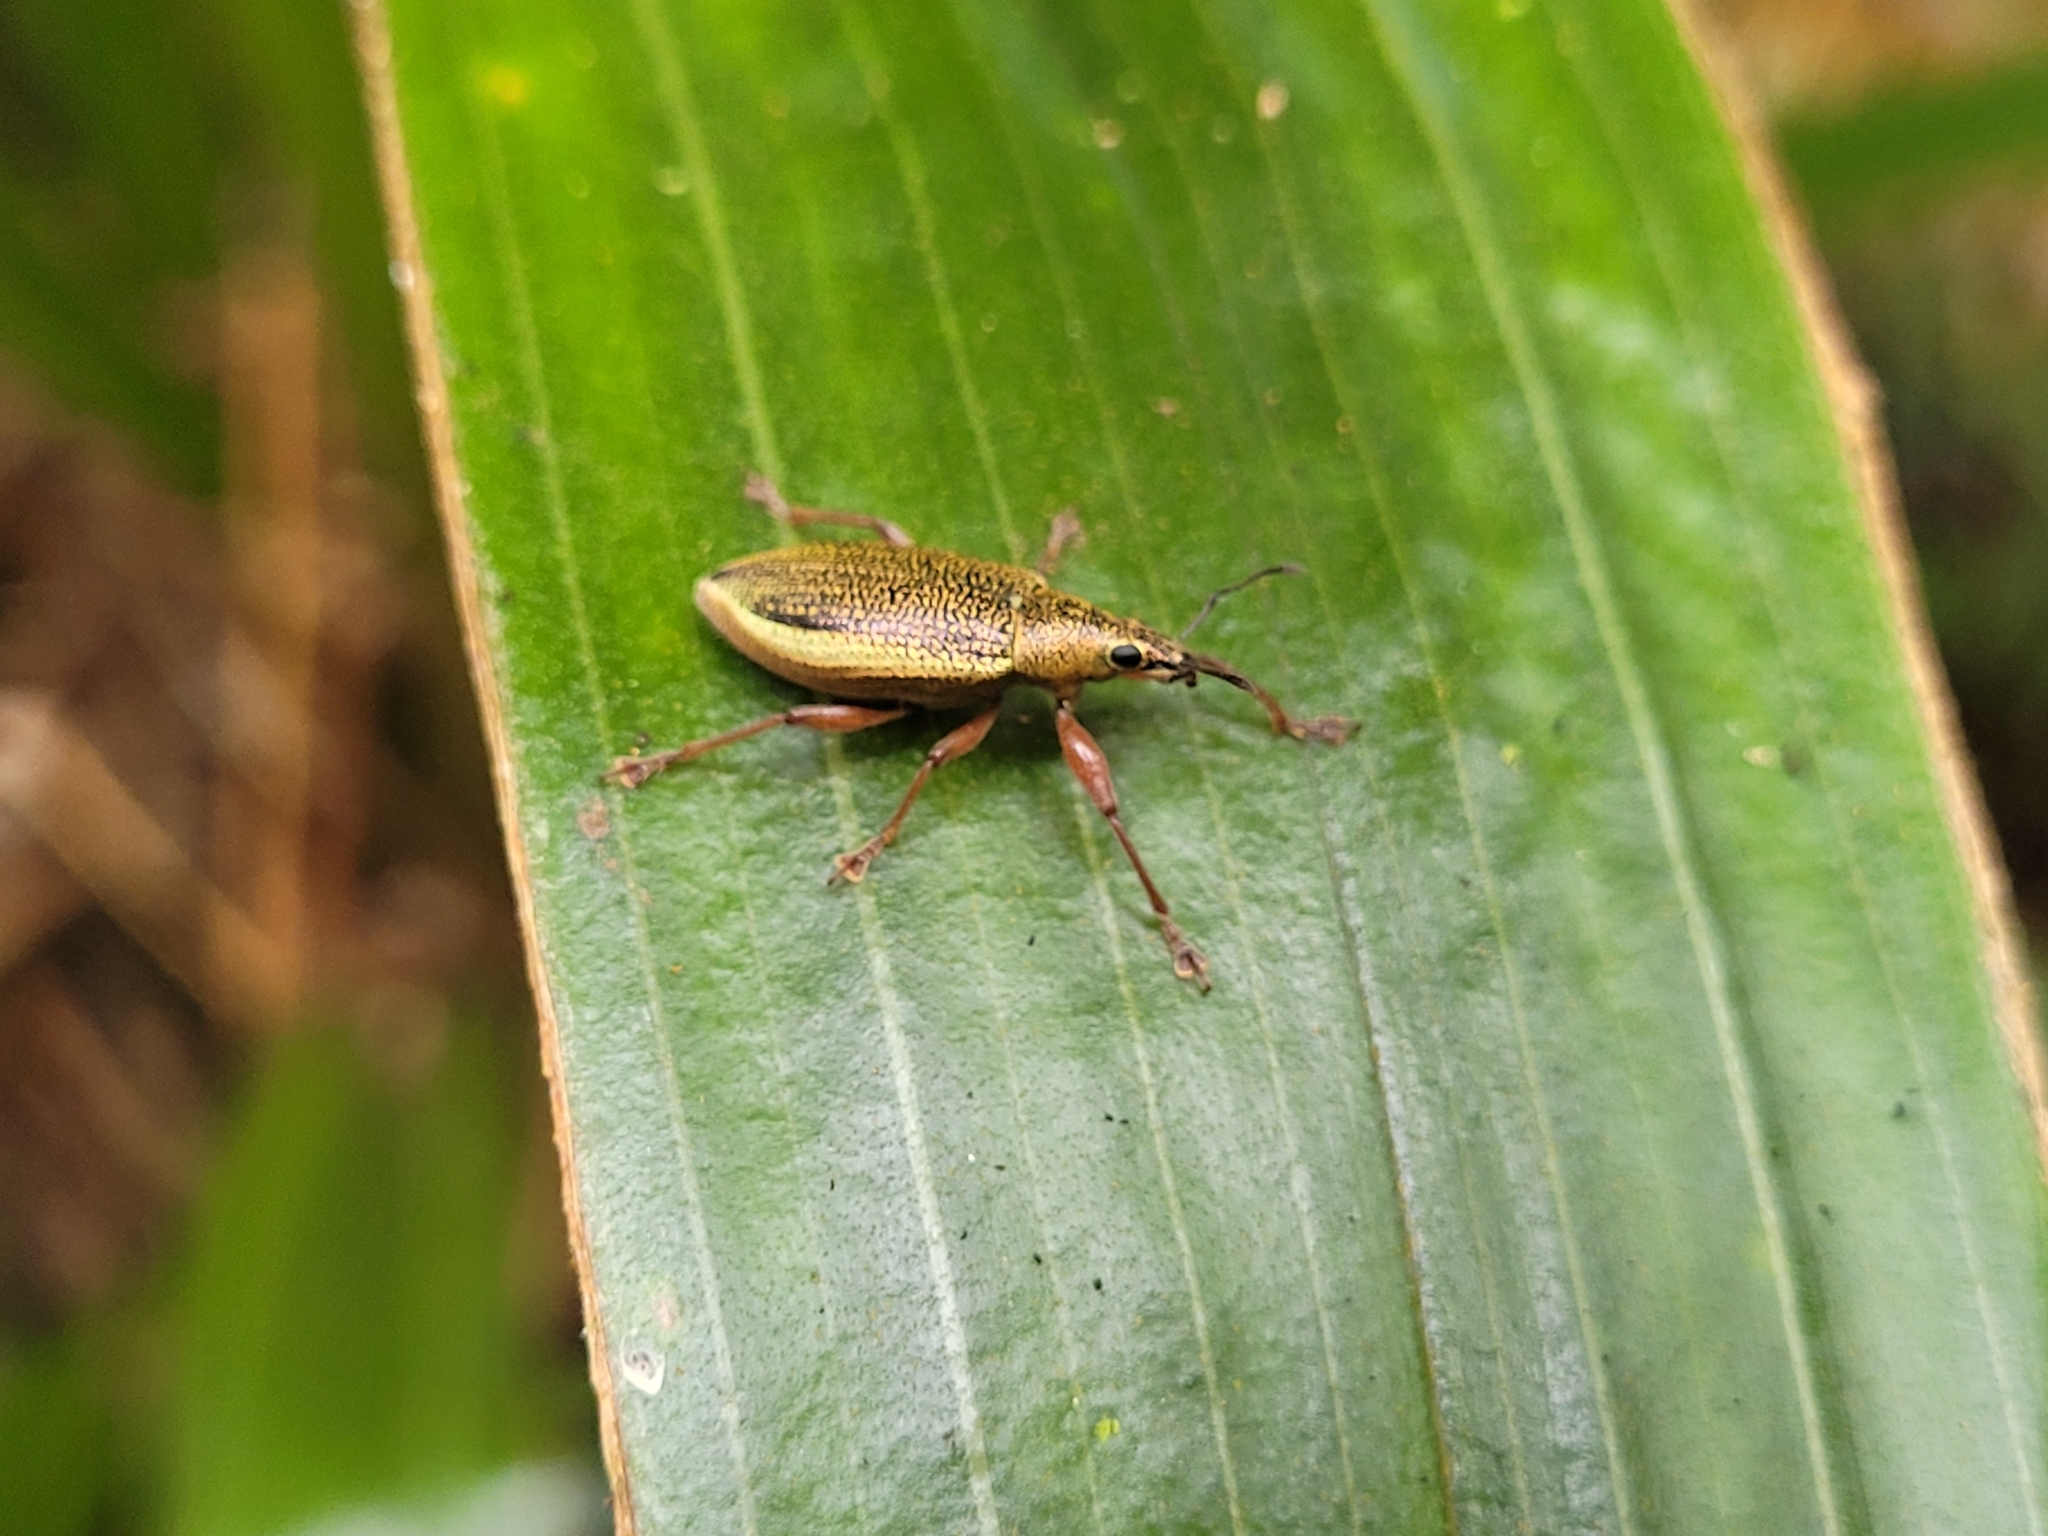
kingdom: Animalia
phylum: Arthropoda
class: Insecta
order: Coleoptera
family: Curculionidae
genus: Cratopus
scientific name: Cratopus sumptuosus
